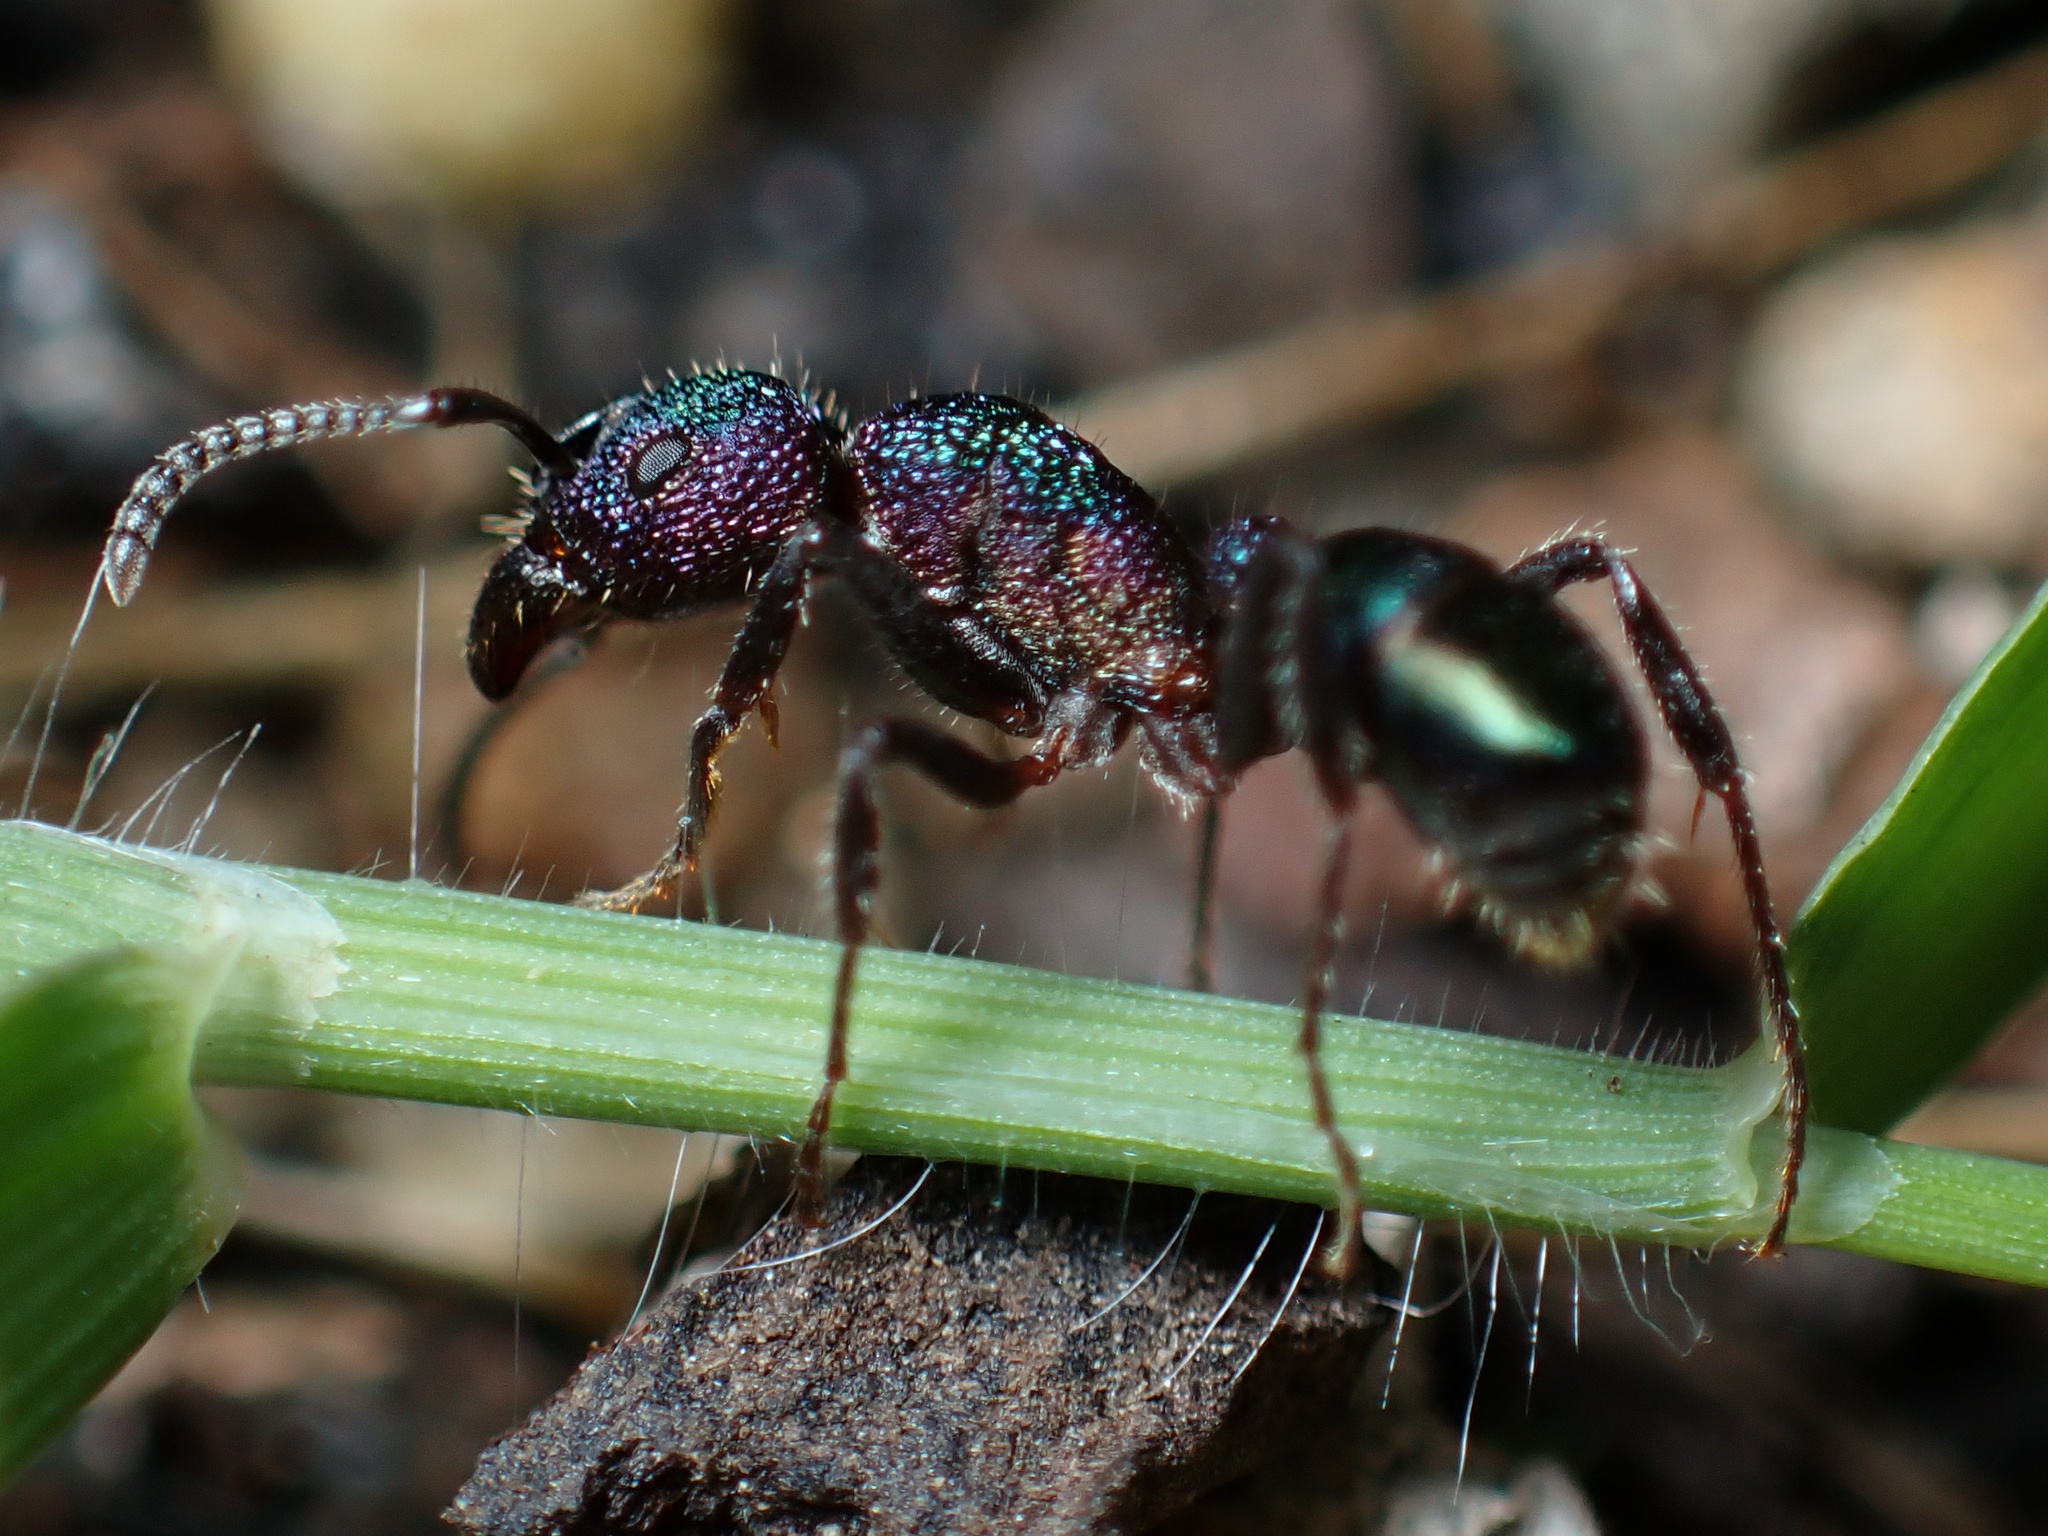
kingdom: Animalia
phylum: Arthropoda
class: Insecta
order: Hymenoptera
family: Formicidae
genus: Rhytidoponera
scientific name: Rhytidoponera metallica
